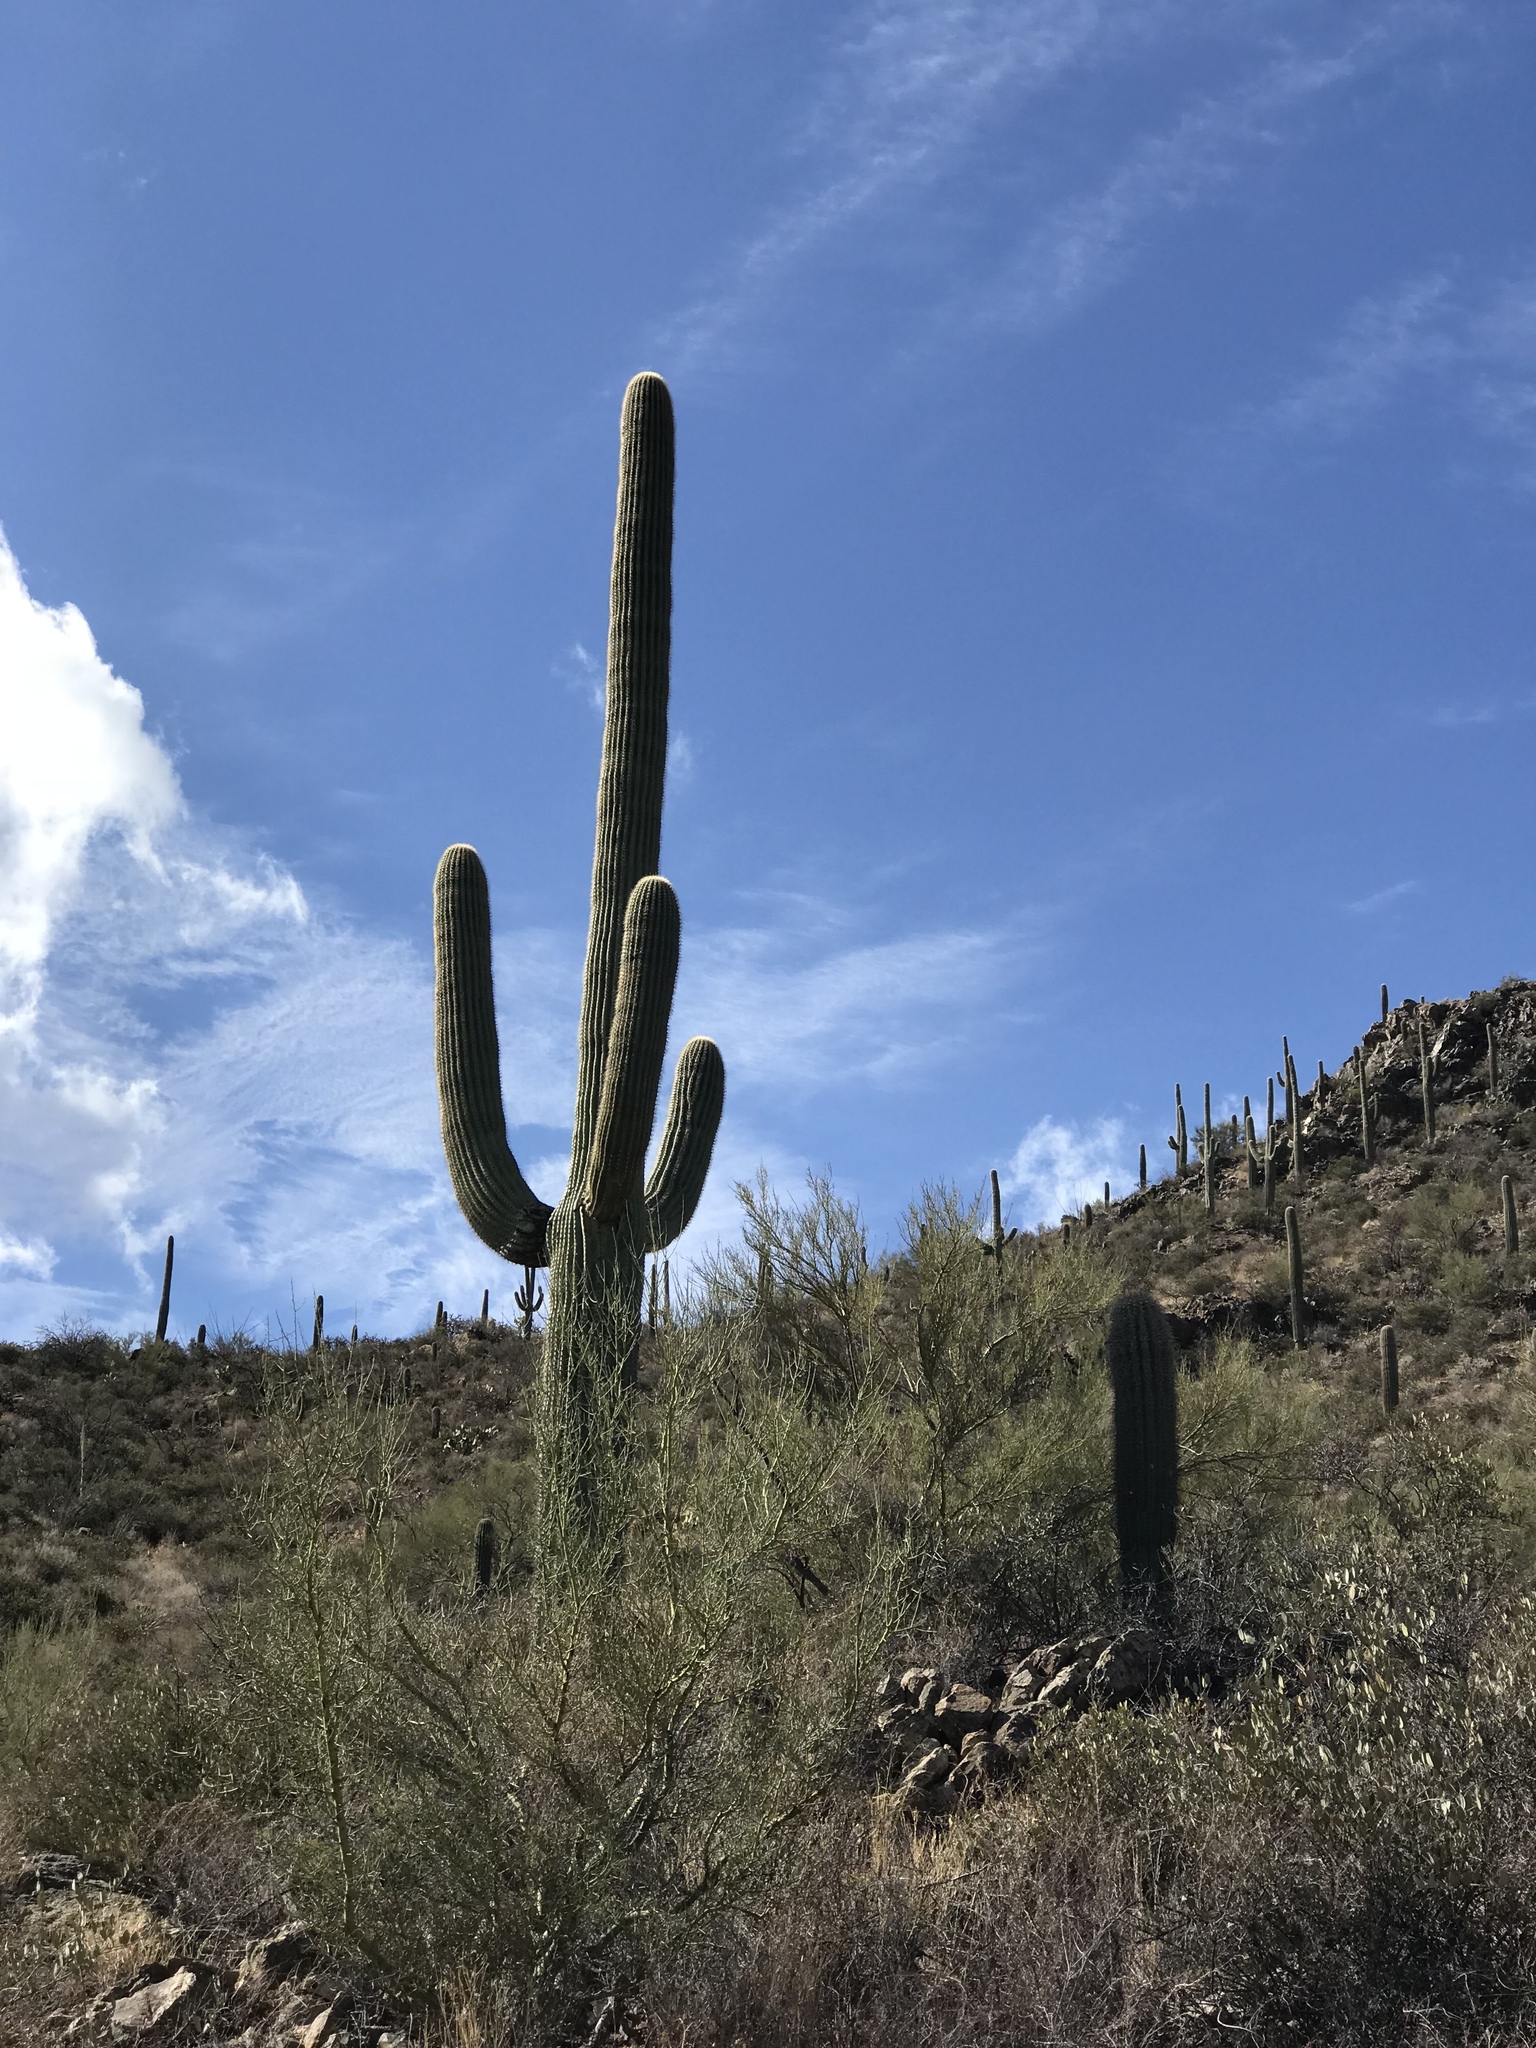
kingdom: Plantae
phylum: Tracheophyta
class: Magnoliopsida
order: Caryophyllales
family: Cactaceae
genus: Carnegiea
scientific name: Carnegiea gigantea
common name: Saguaro
